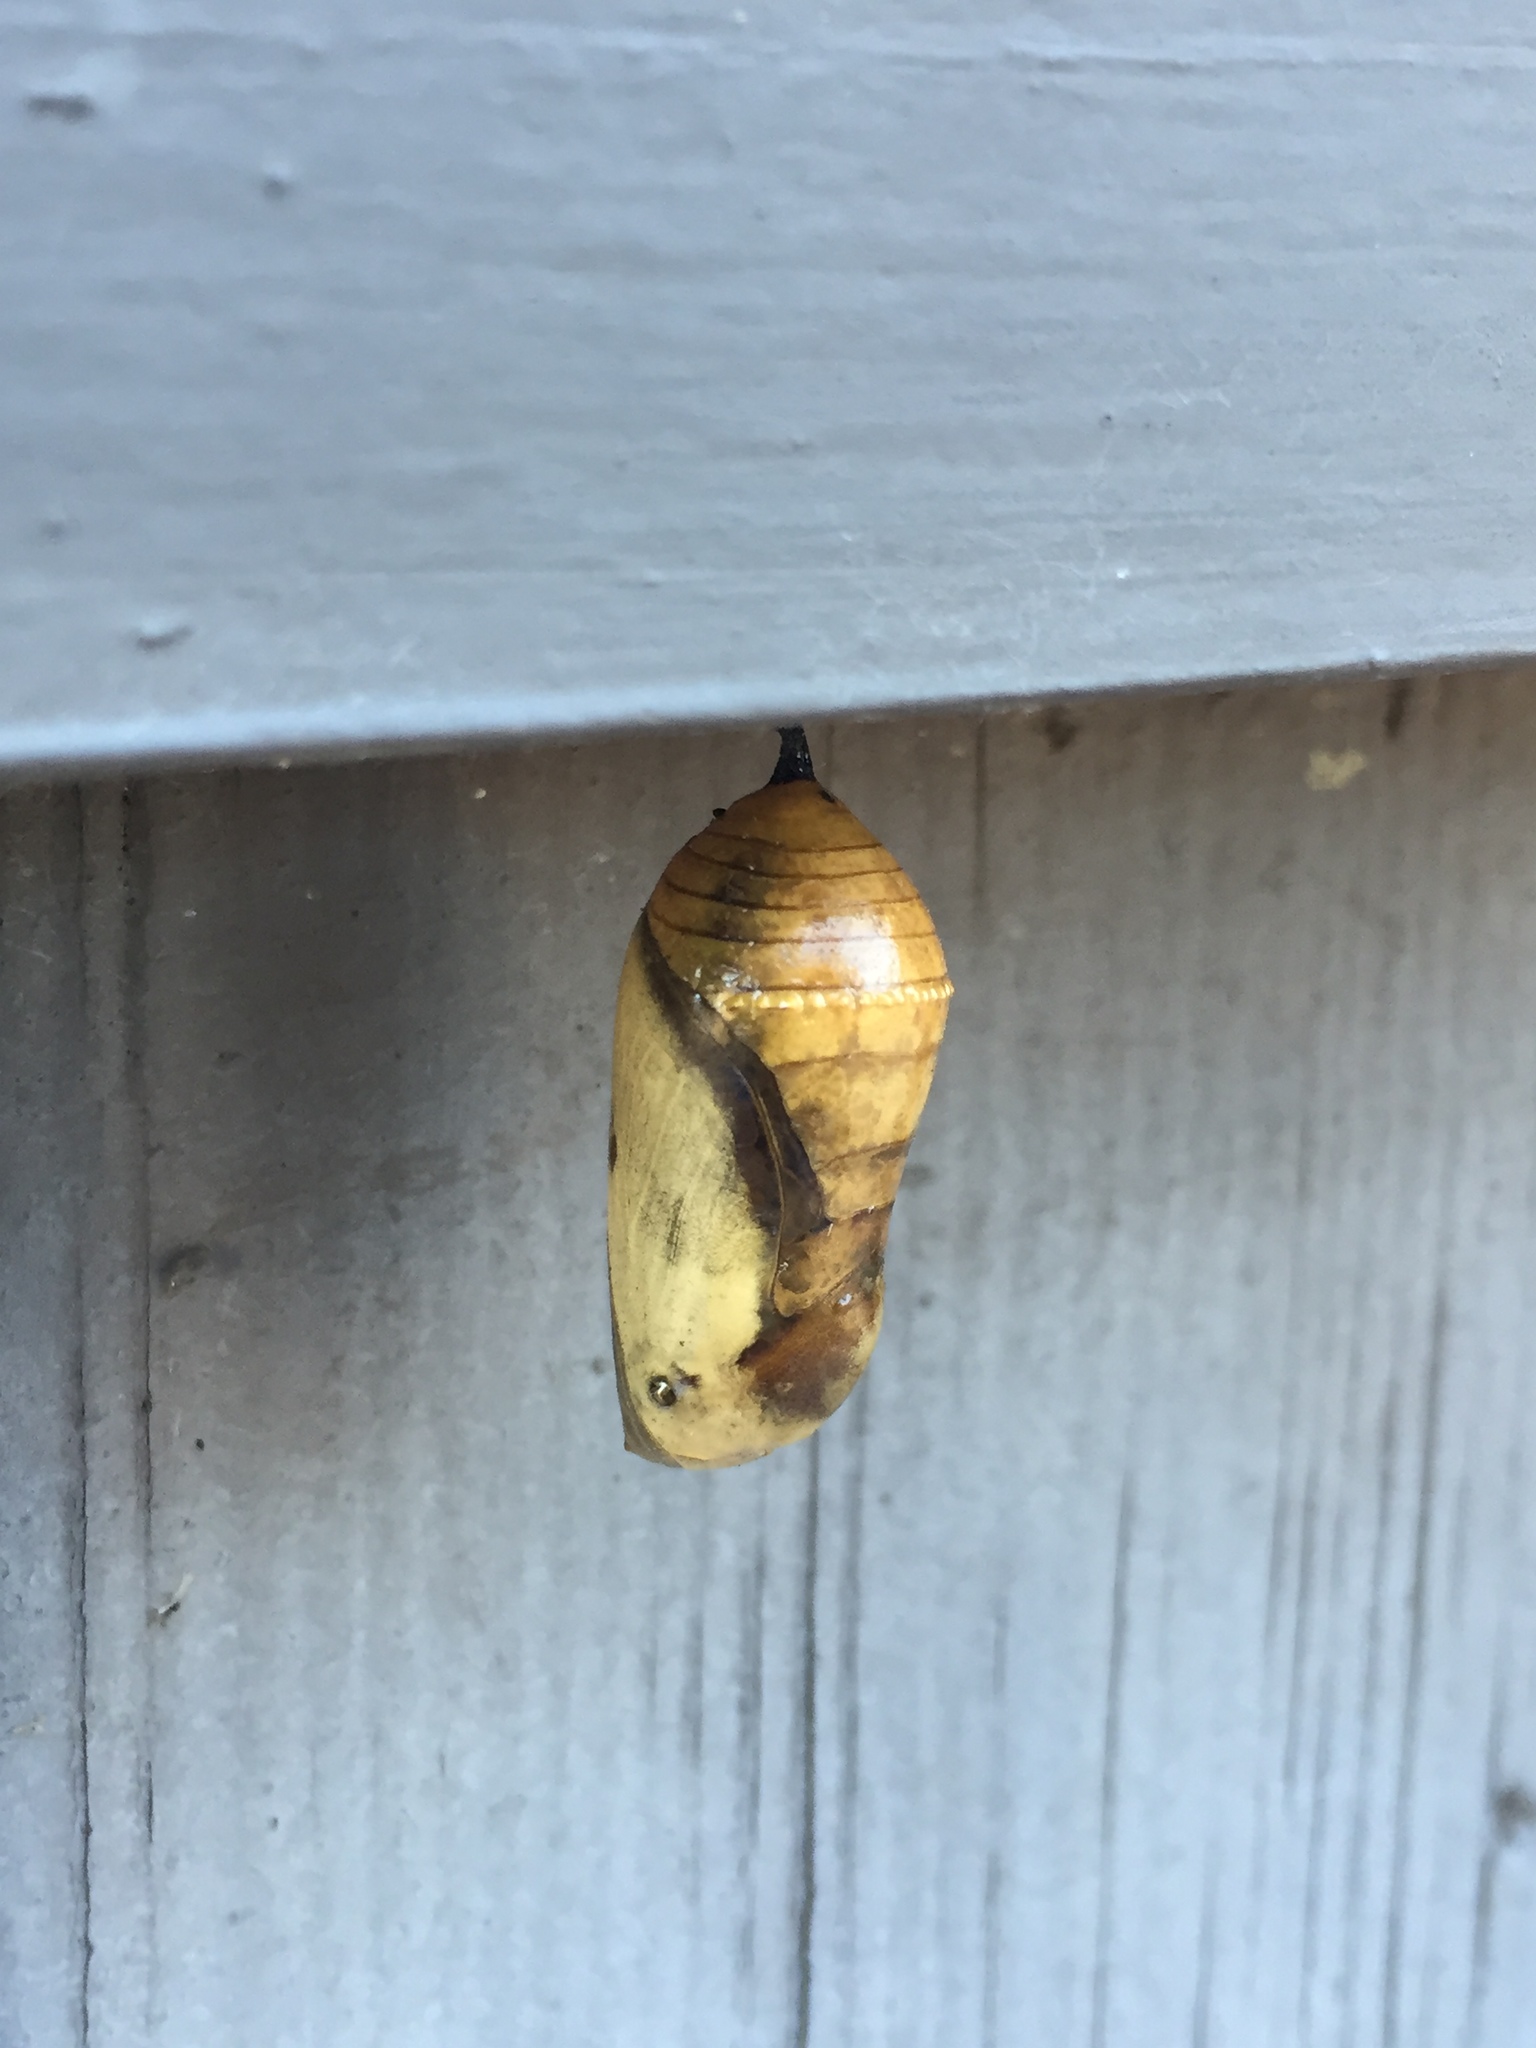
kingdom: Animalia
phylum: Arthropoda
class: Insecta
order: Lepidoptera
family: Nymphalidae
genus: Danaus
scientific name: Danaus plexippus
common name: Monarch
